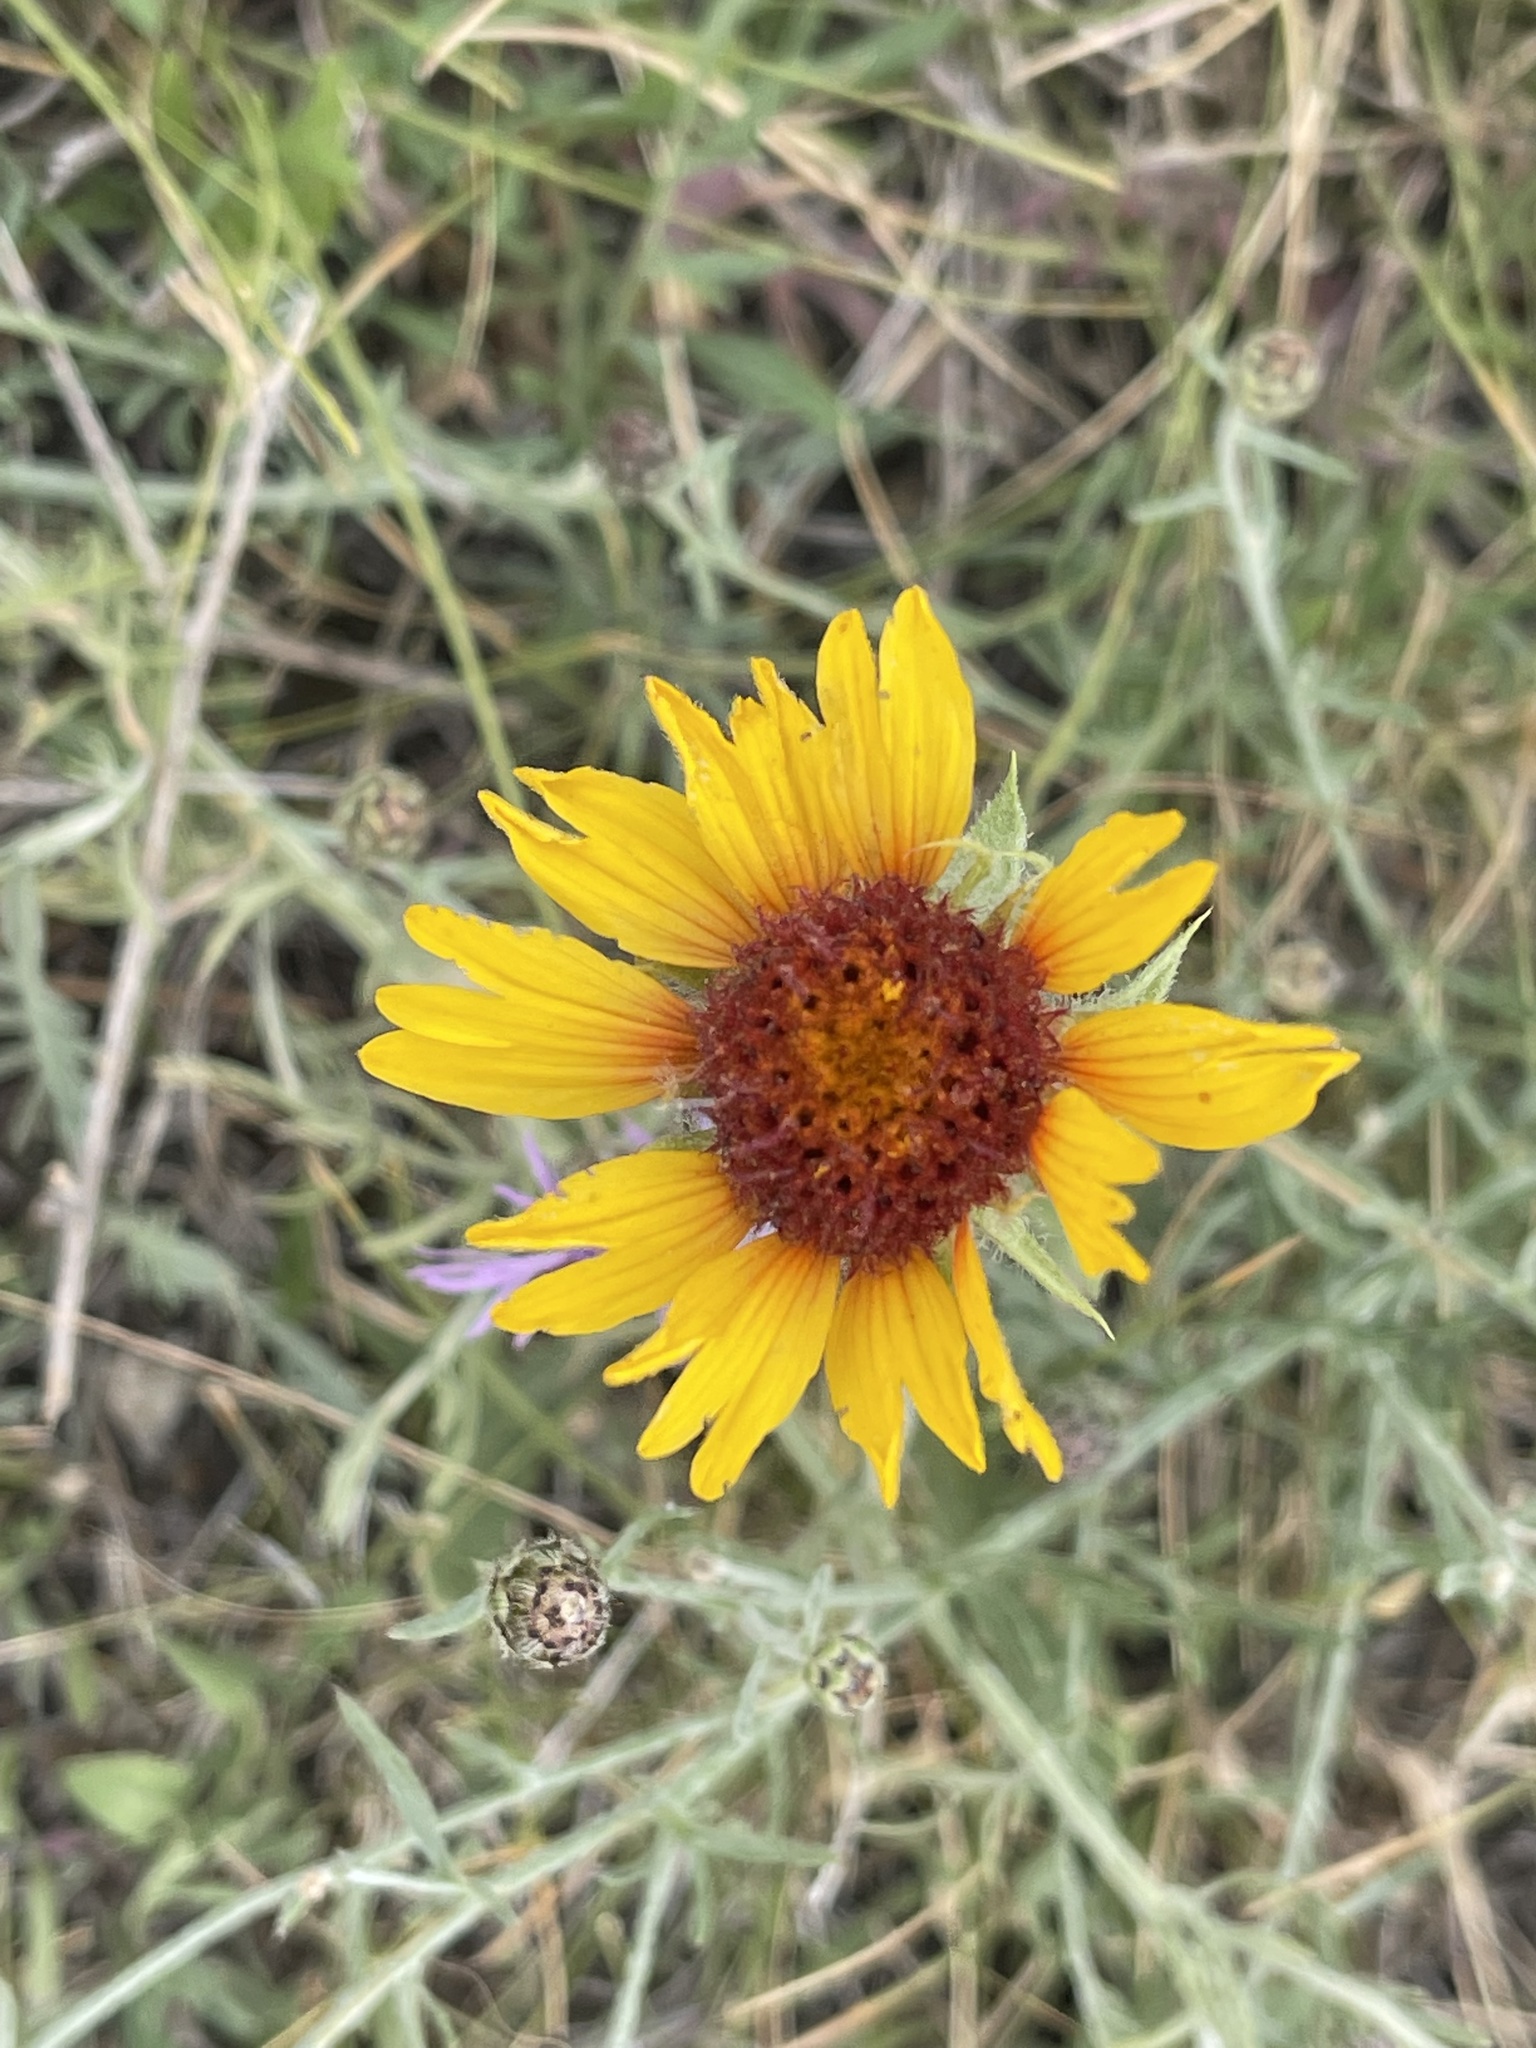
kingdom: Plantae
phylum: Tracheophyta
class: Magnoliopsida
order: Asterales
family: Asteraceae
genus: Gaillardia
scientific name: Gaillardia aristata
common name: Blanket-flower
